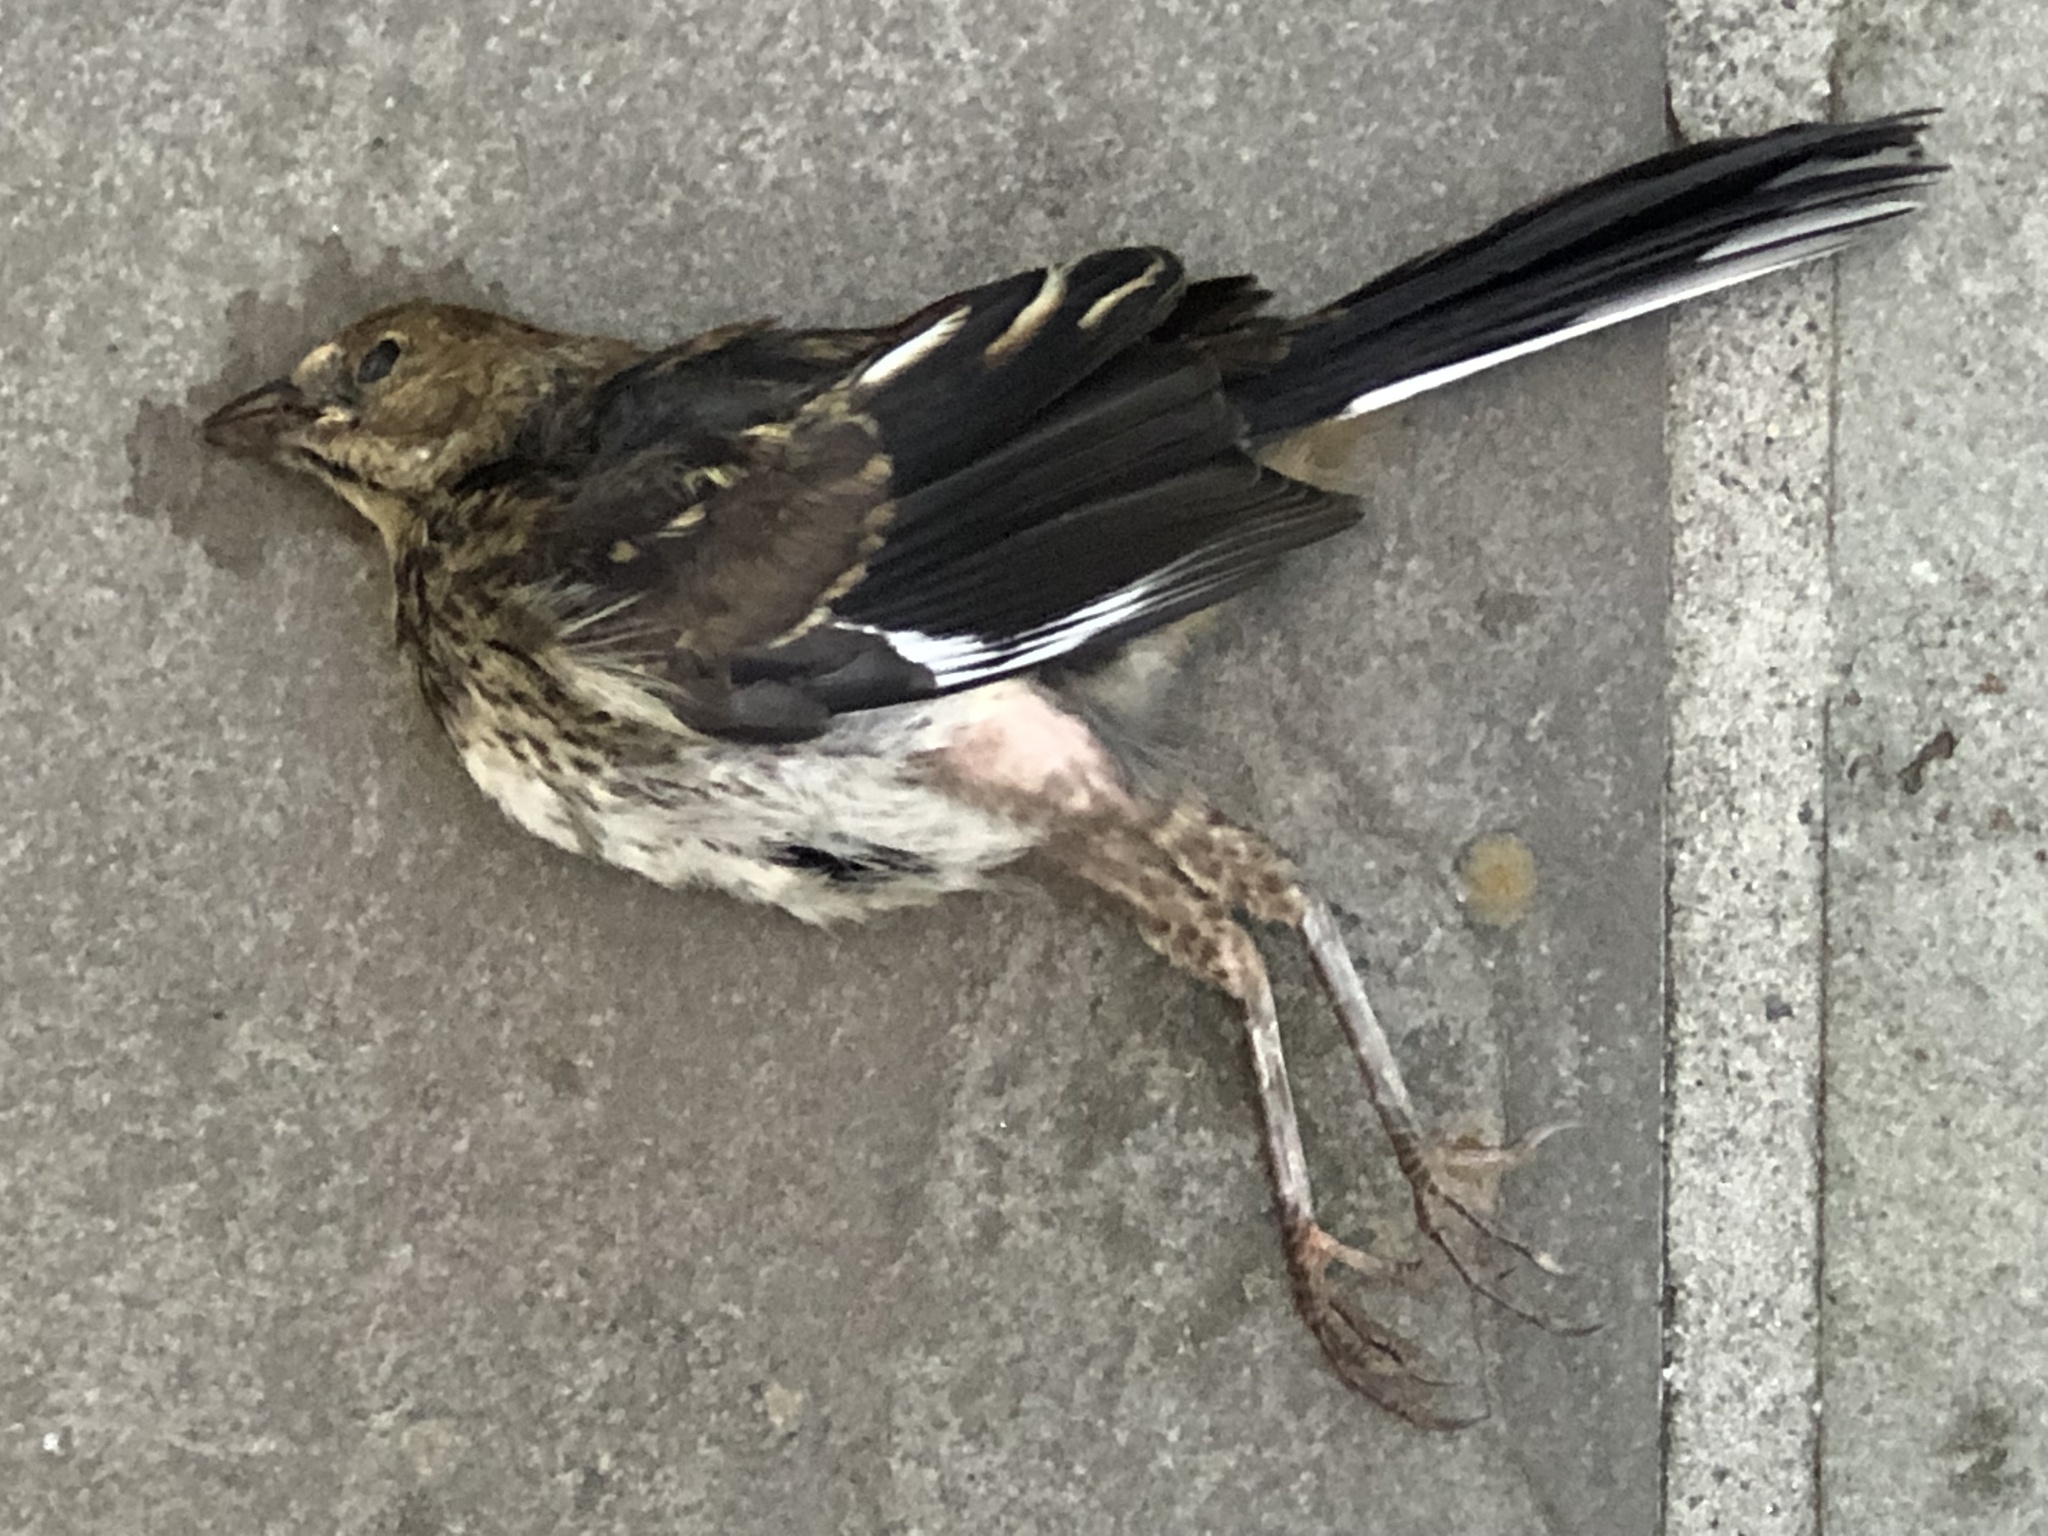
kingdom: Animalia
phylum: Chordata
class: Aves
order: Passeriformes
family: Passerellidae
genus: Pipilo
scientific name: Pipilo erythrophthalmus
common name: Eastern towhee
